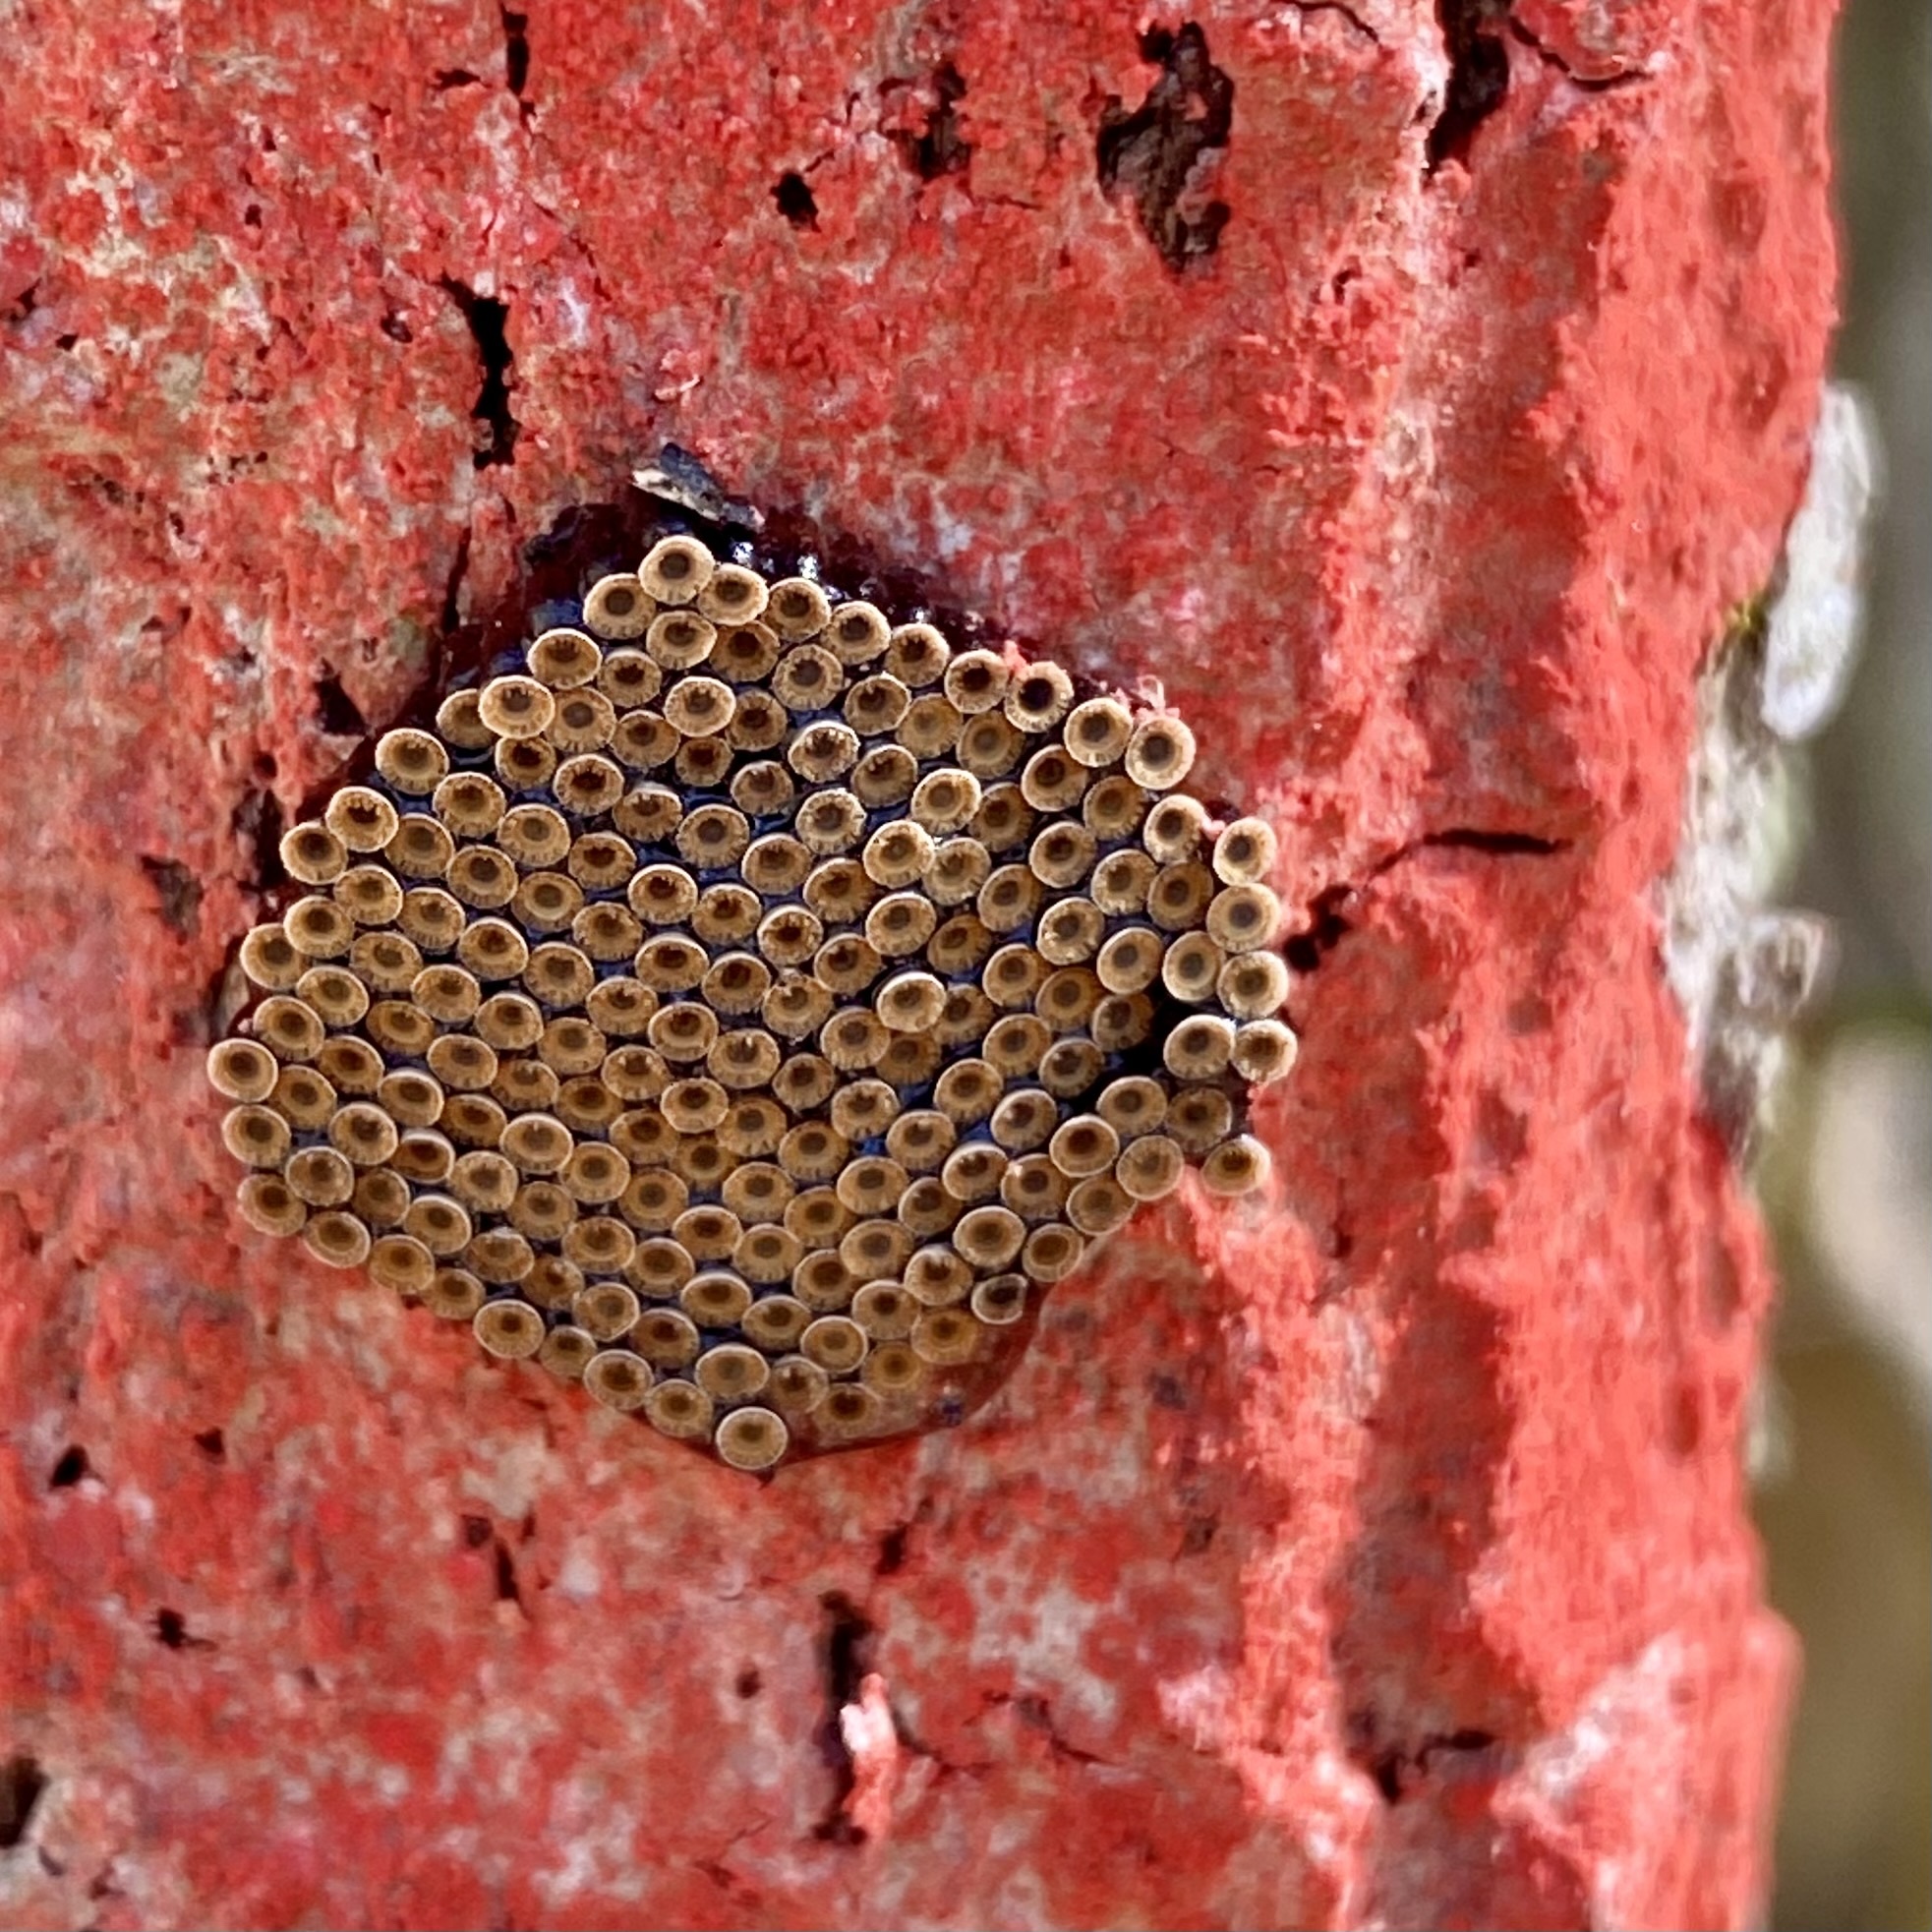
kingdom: Animalia
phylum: Arthropoda
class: Insecta
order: Hemiptera
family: Reduviidae
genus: Arilus
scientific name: Arilus cristatus
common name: North american wheel bug
